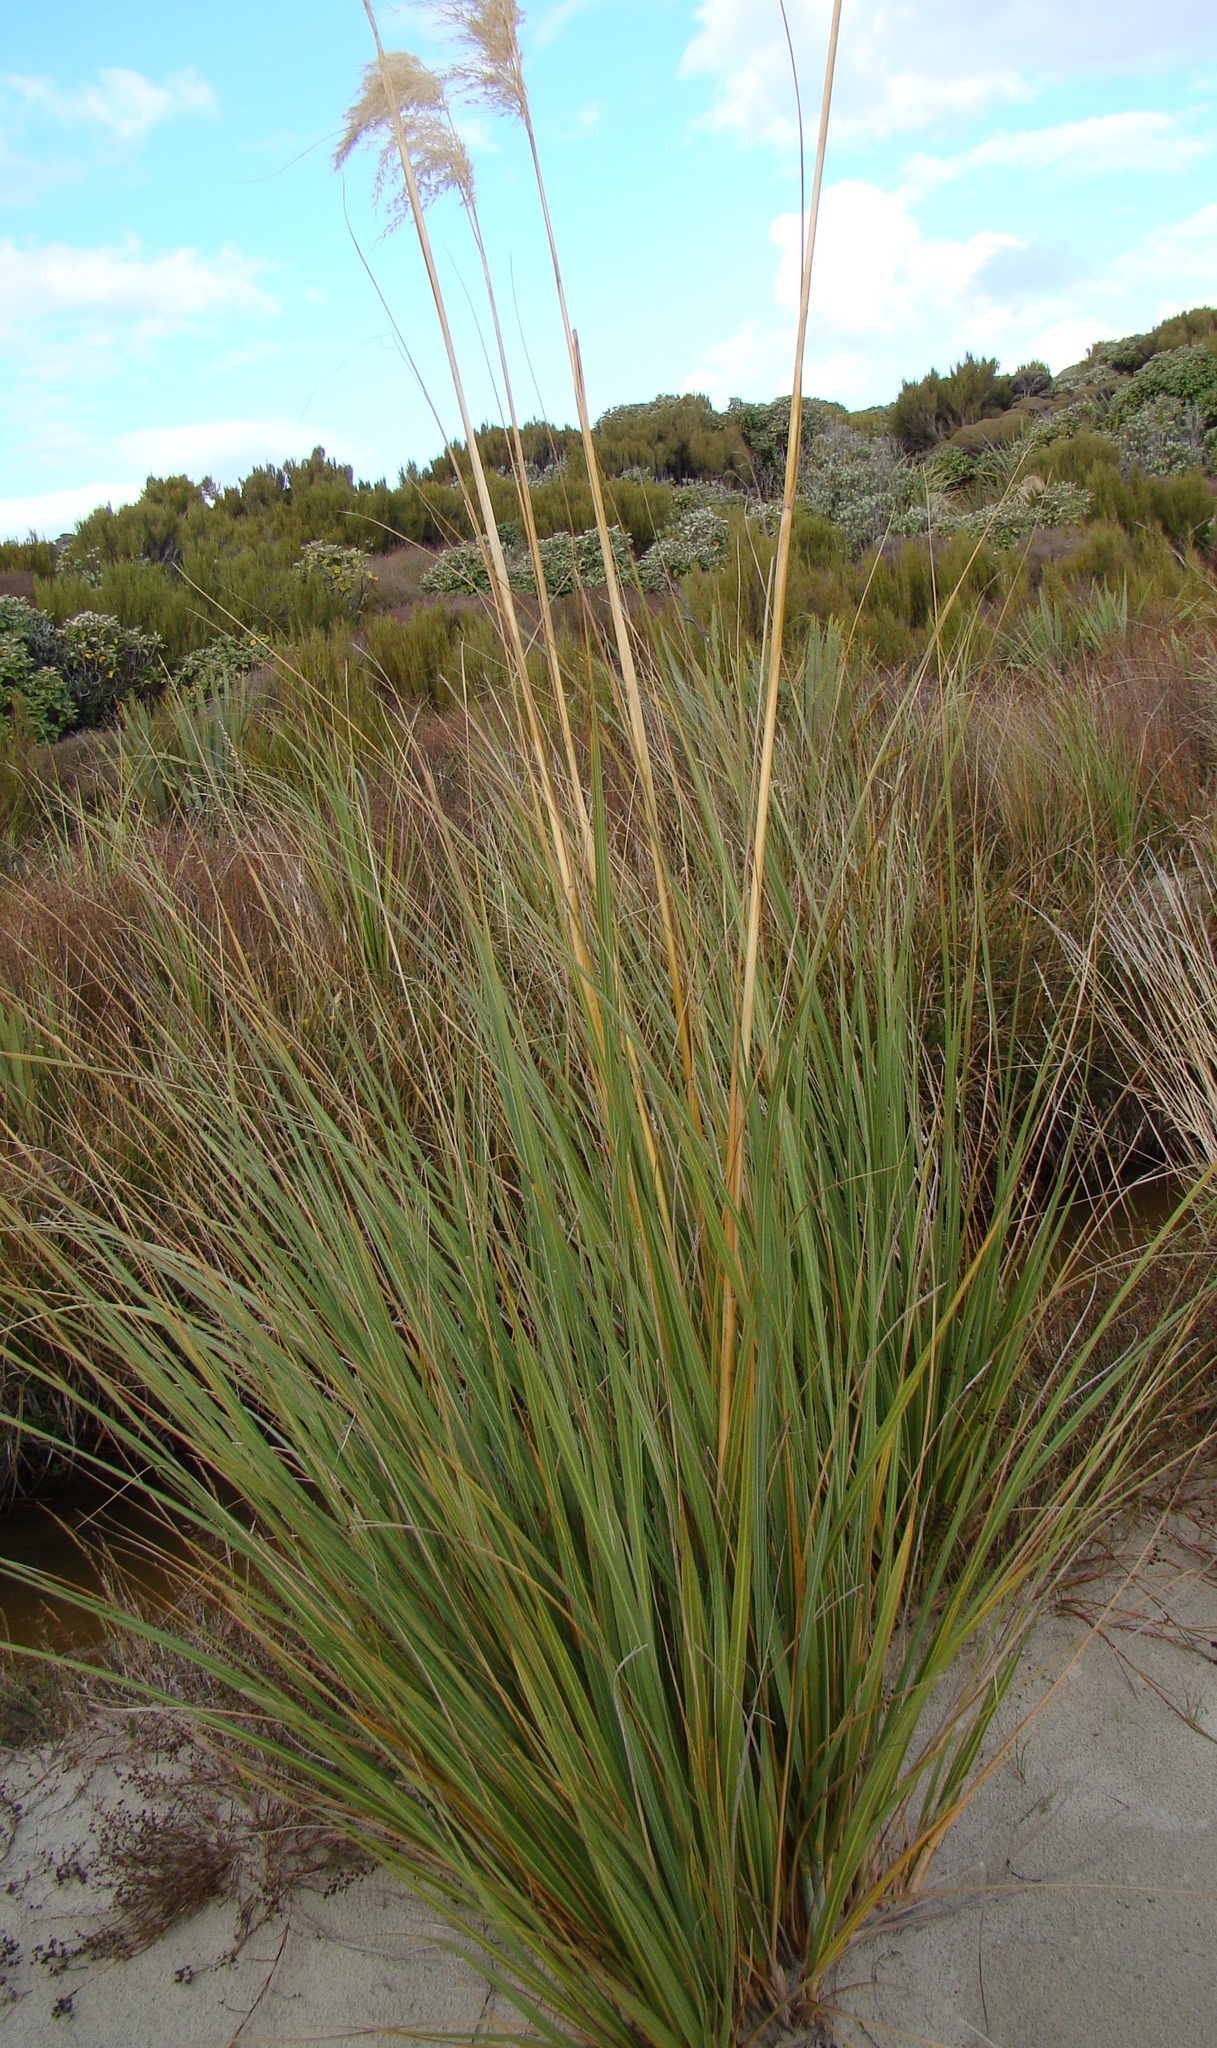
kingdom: Plantae
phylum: Tracheophyta
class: Liliopsida
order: Poales
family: Poaceae
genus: Austroderia
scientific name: Austroderia richardii
